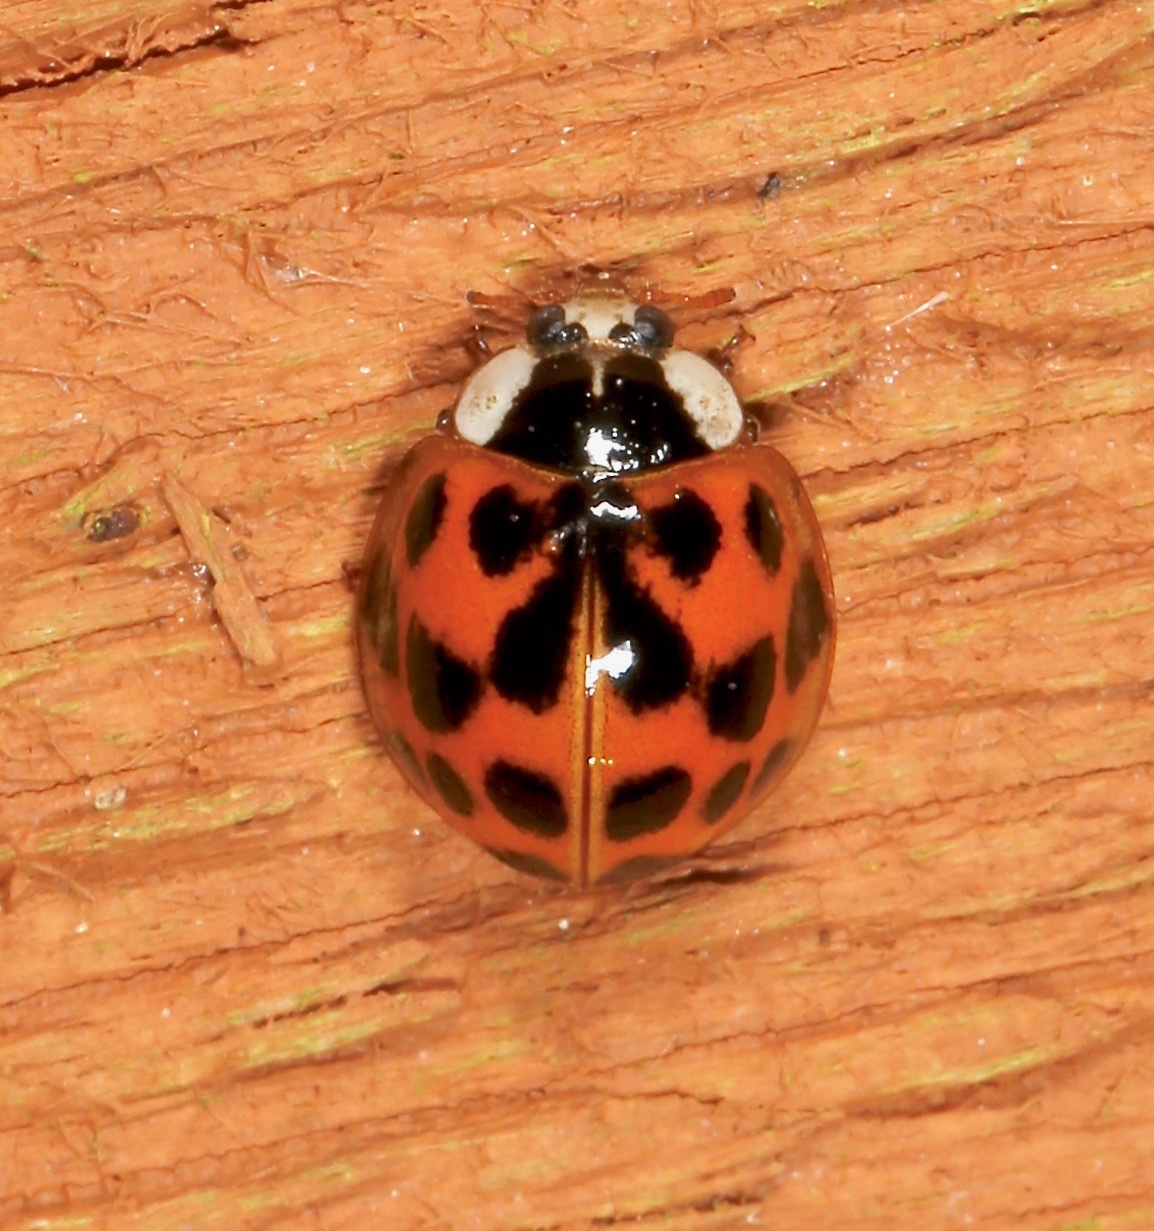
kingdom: Animalia
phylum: Arthropoda
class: Insecta
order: Coleoptera
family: Coccinellidae
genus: Harmonia
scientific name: Harmonia axyridis
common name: Harlequin ladybird
